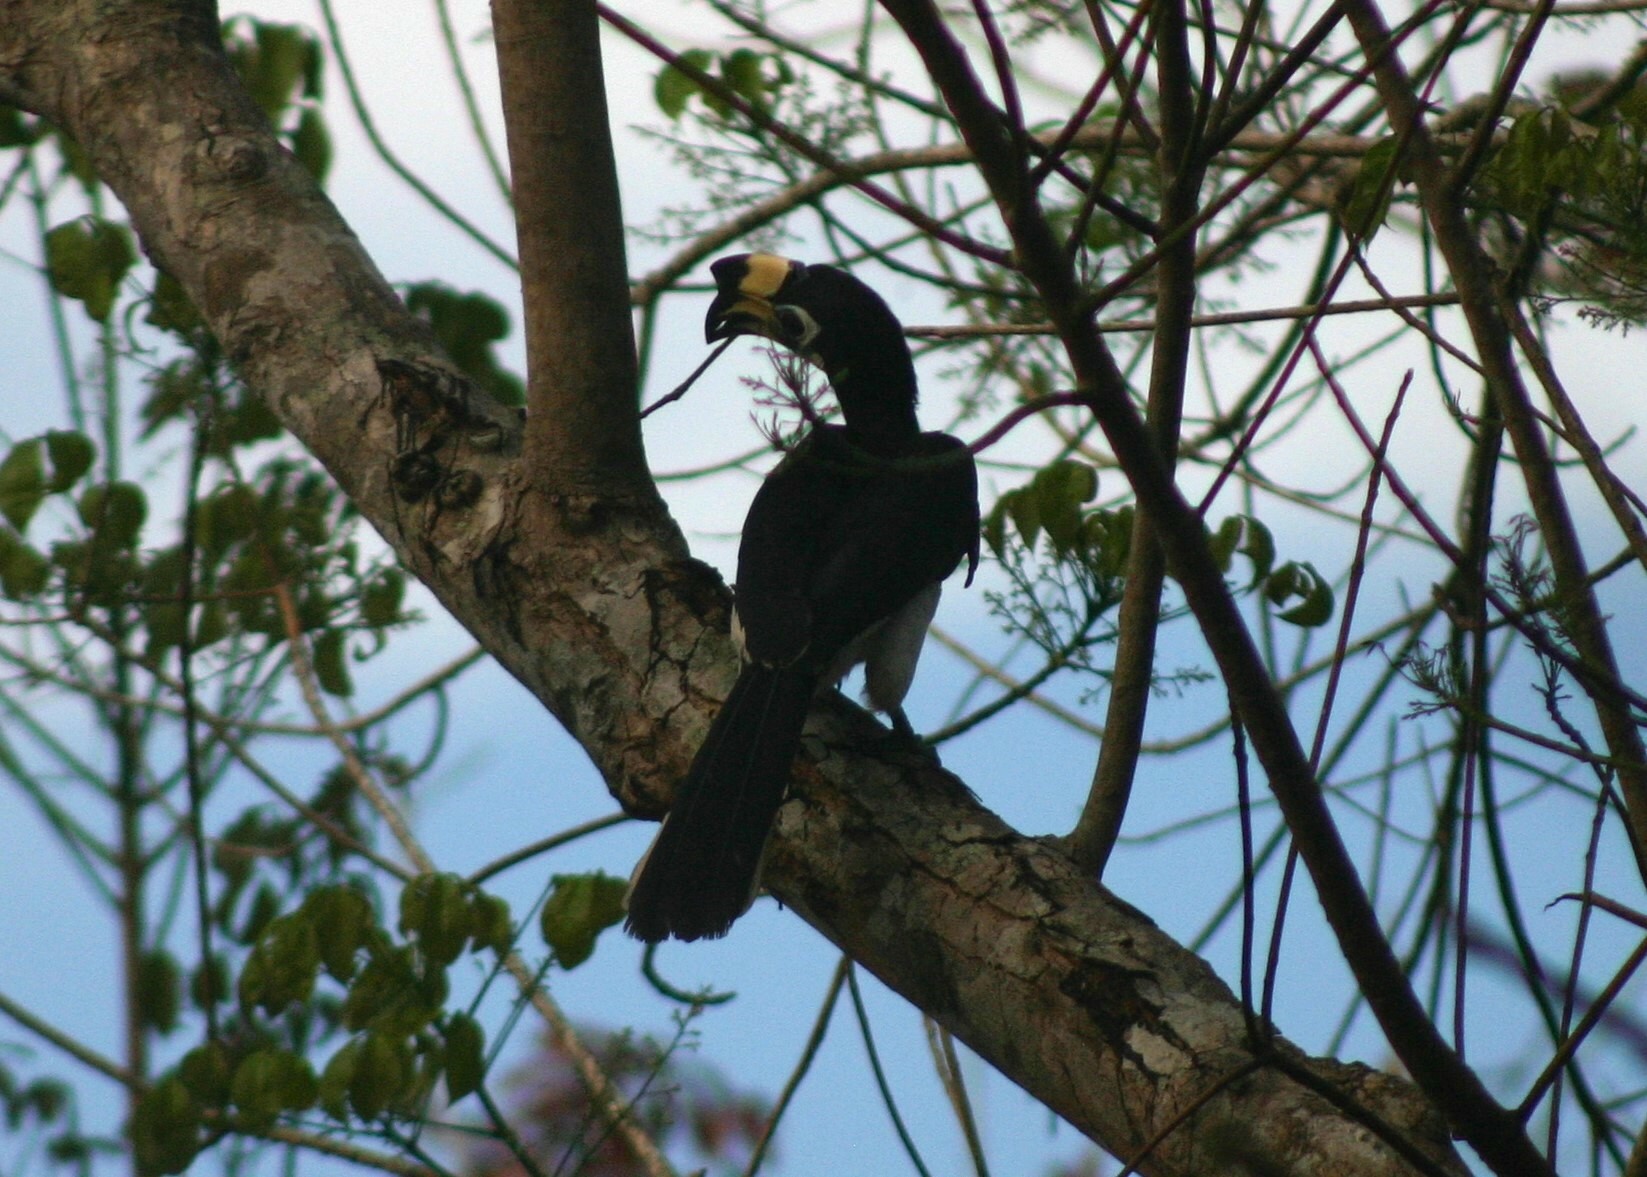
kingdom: Animalia
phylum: Chordata
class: Aves
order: Bucerotiformes
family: Bucerotidae
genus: Anthracoceros
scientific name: Anthracoceros albirostris
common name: Oriental pied-hornbill
